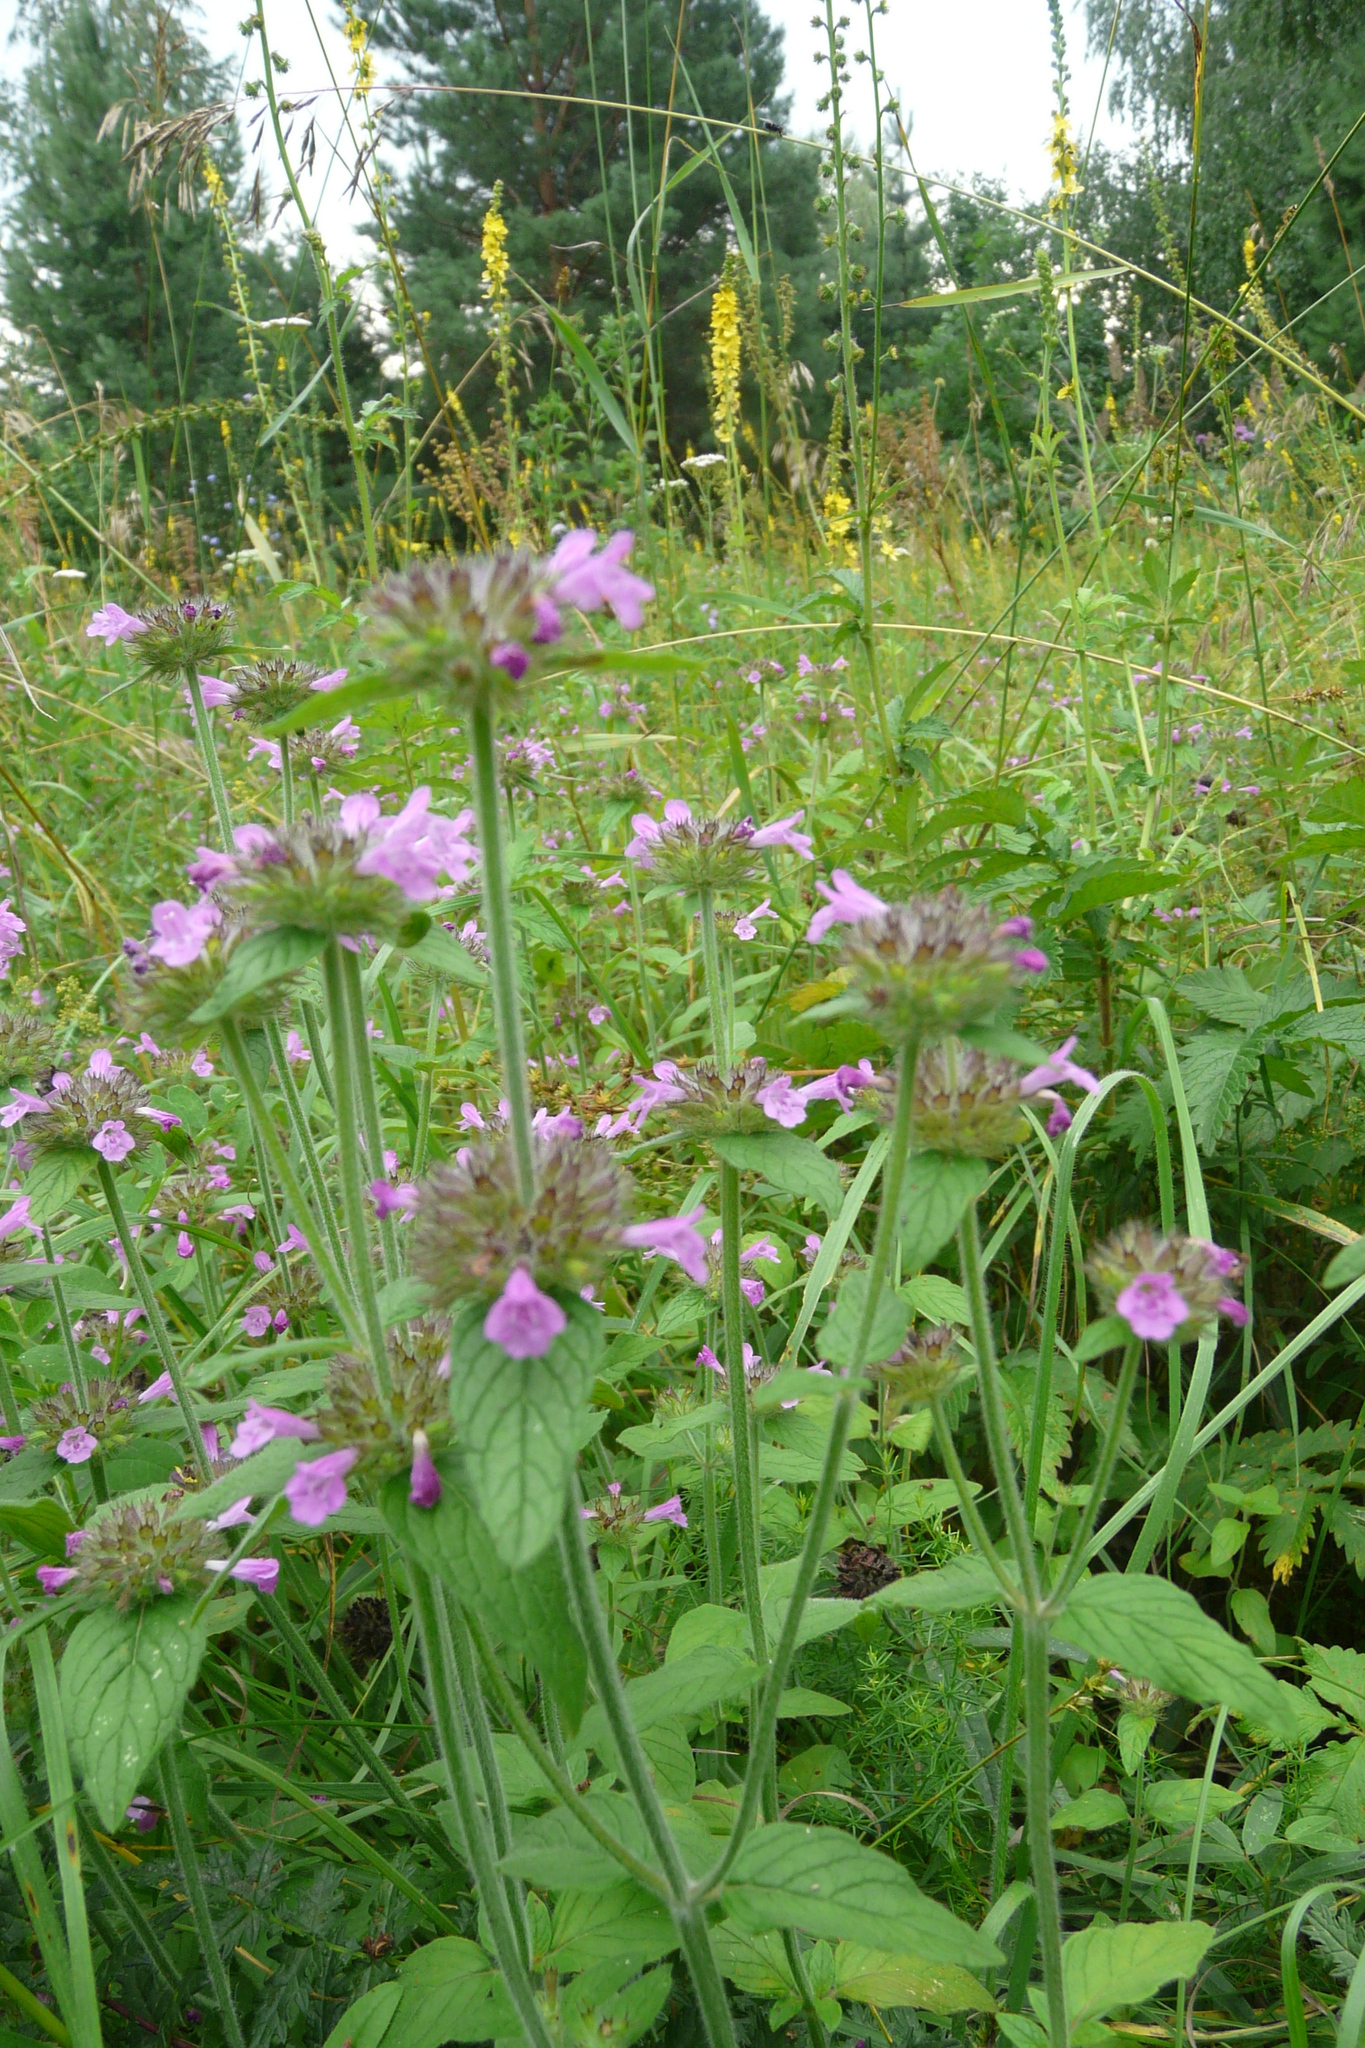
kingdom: Plantae
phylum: Tracheophyta
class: Magnoliopsida
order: Lamiales
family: Lamiaceae
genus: Clinopodium
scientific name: Clinopodium vulgare
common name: Wild basil
